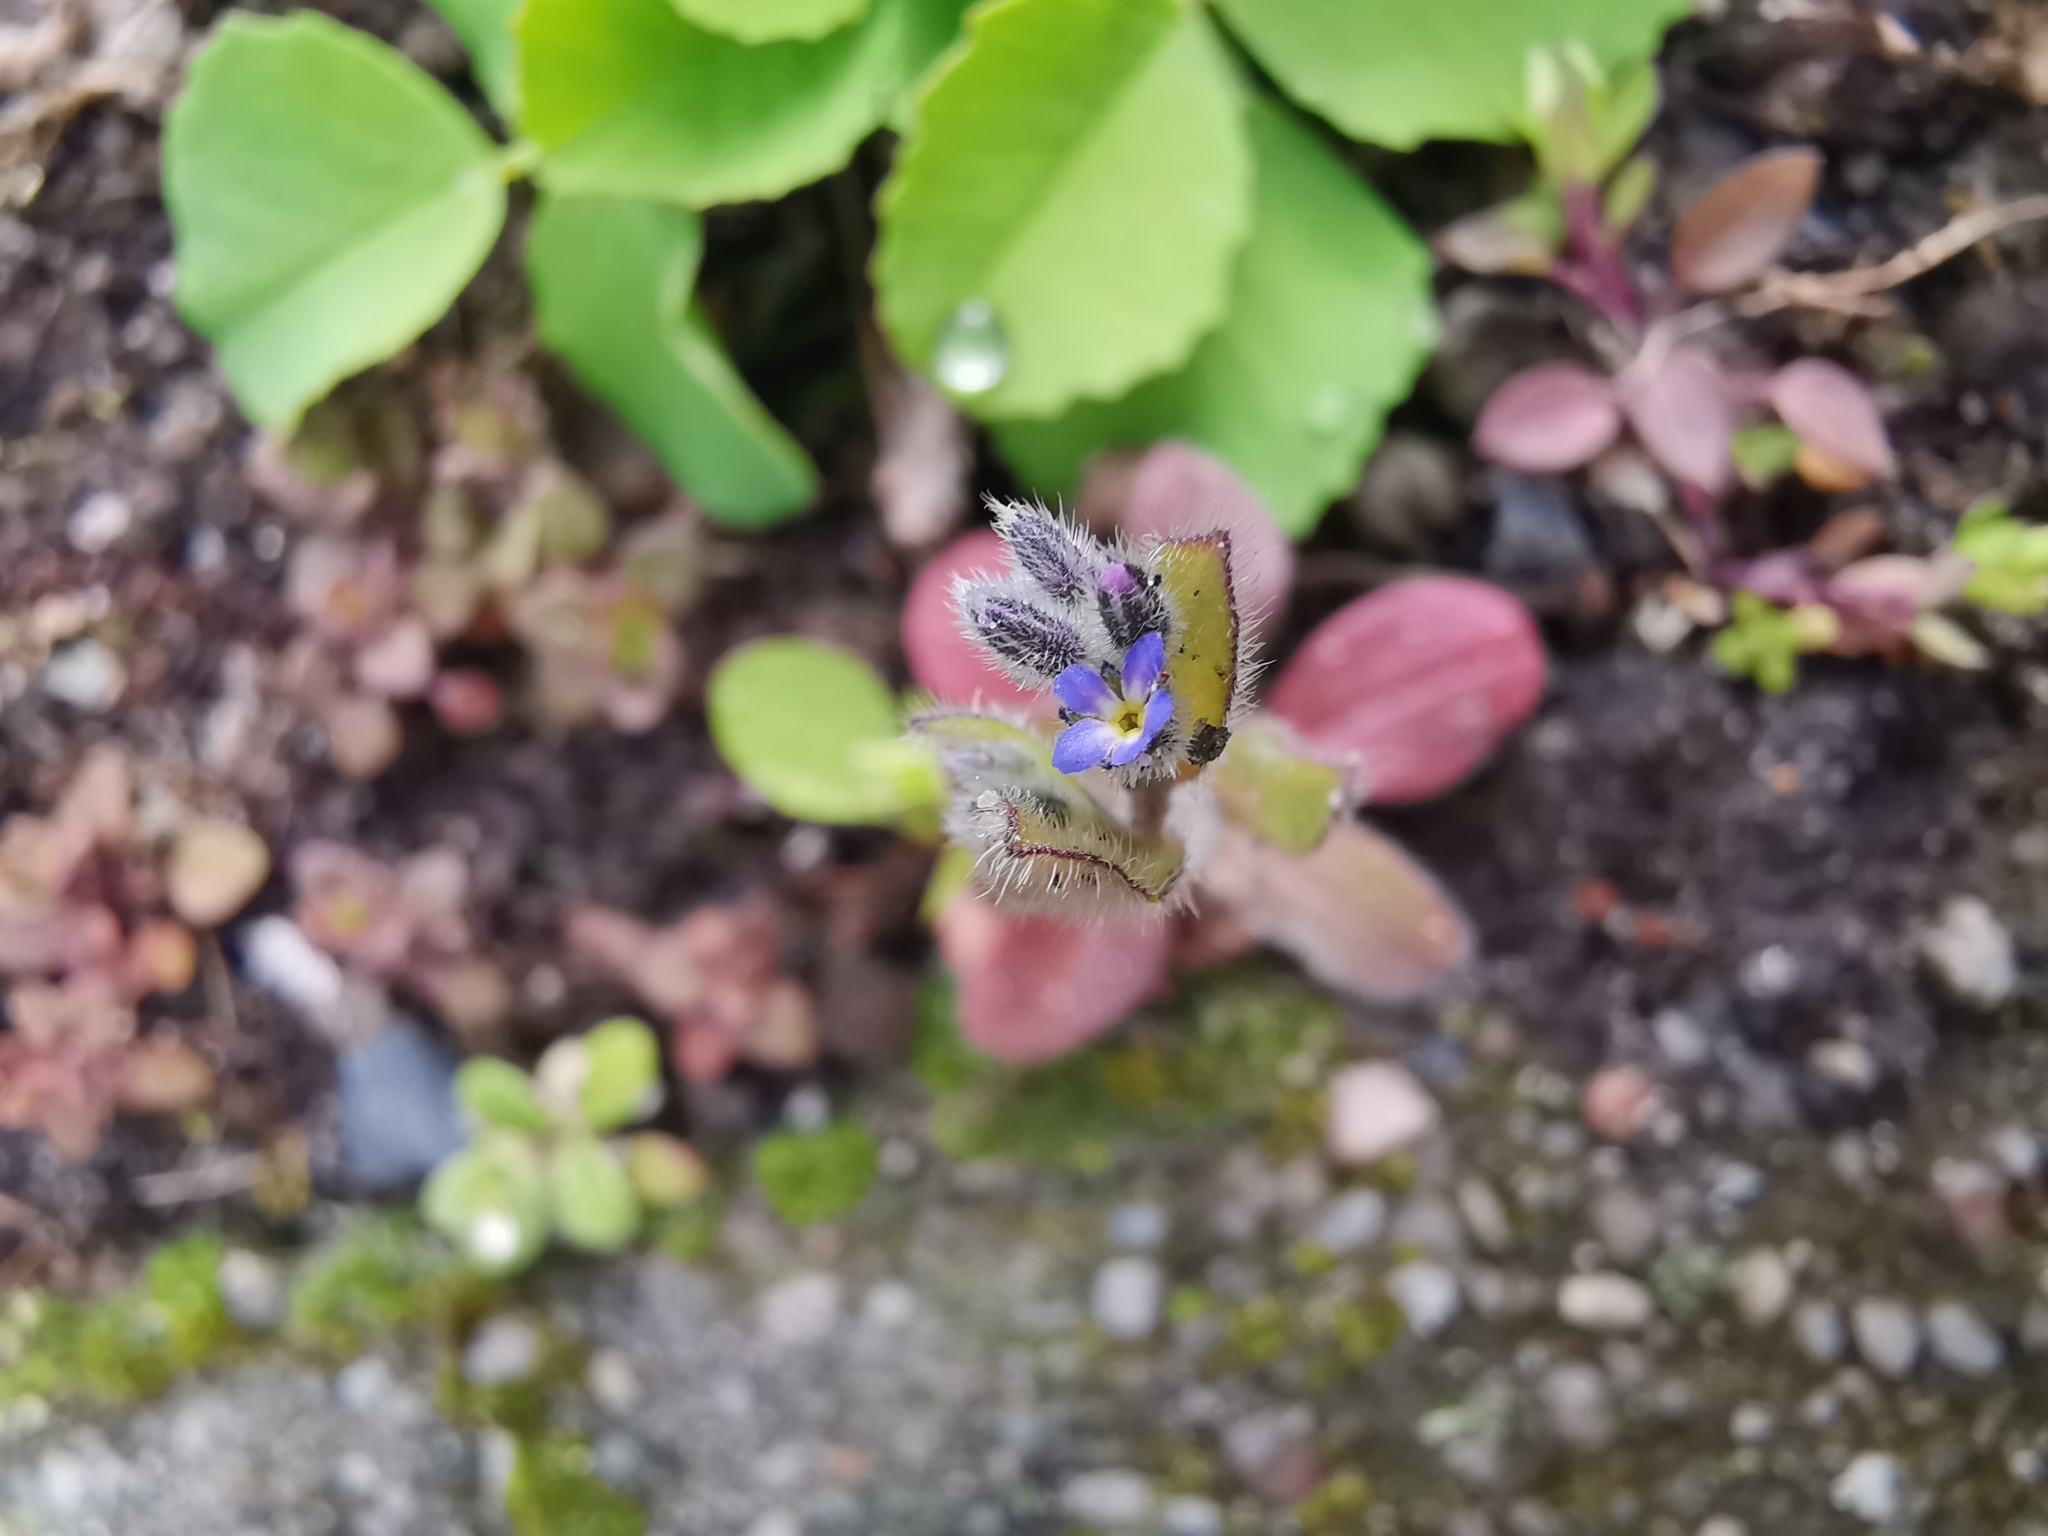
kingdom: Plantae
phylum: Tracheophyta
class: Magnoliopsida
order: Boraginales
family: Boraginaceae
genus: Myosotis
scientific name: Myosotis stricta
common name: Strict forget-me-not
